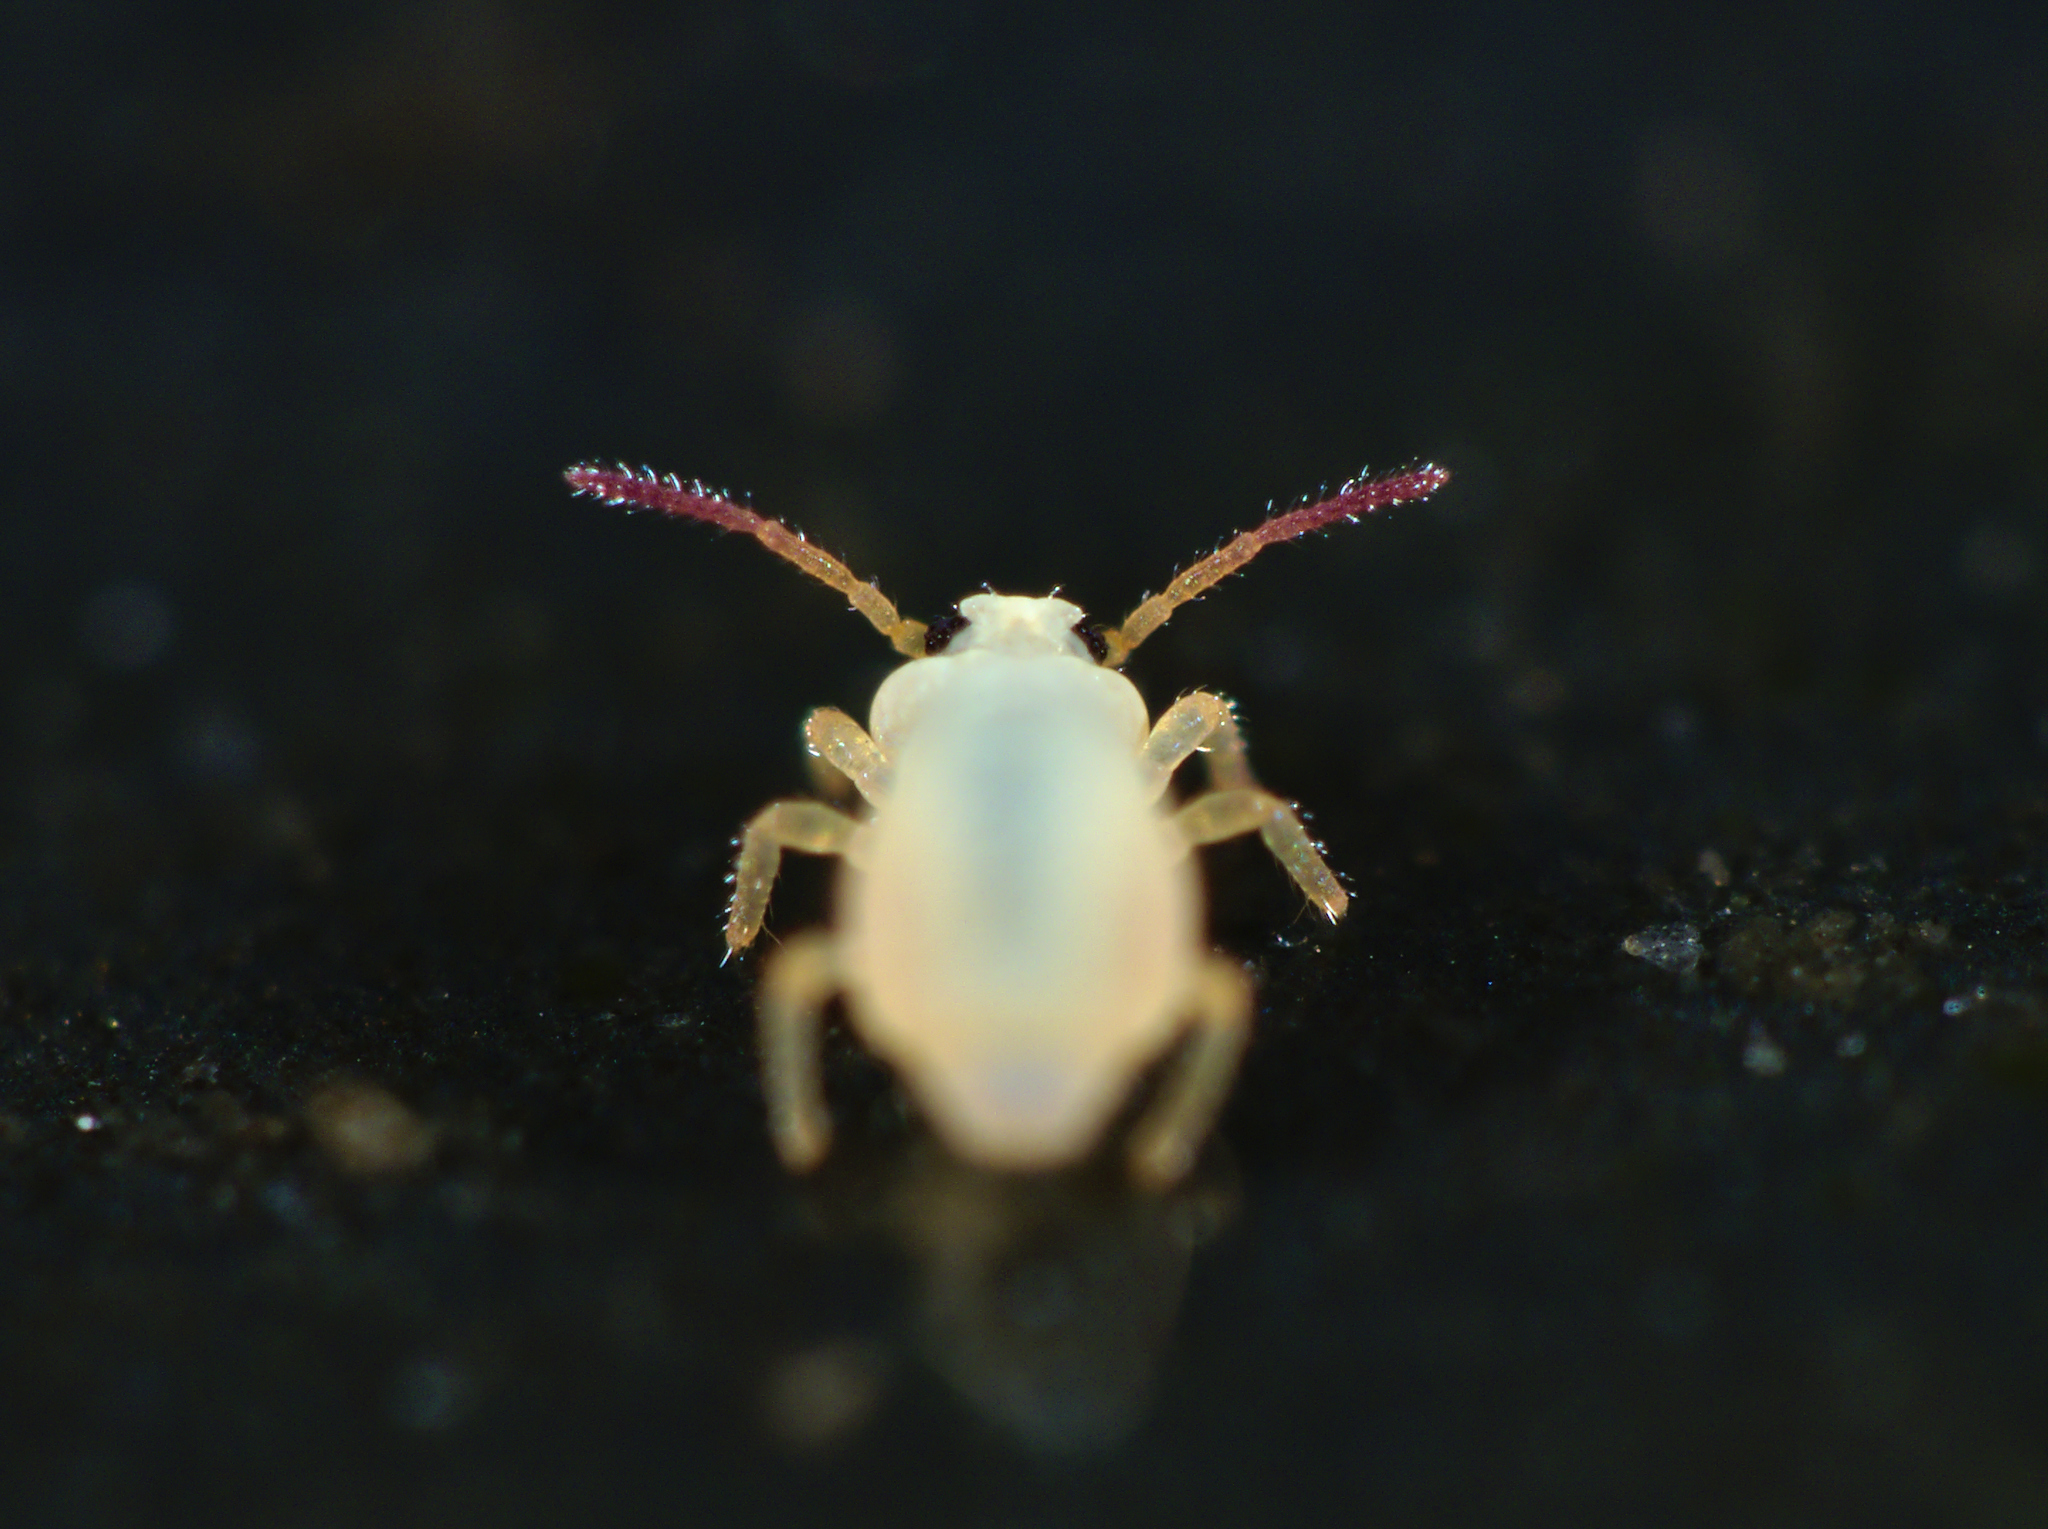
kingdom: Animalia
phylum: Arthropoda
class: Collembola
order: Symphypleona
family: Sminthurididae
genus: Sminthurides
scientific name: Sminthurides aquaticus
